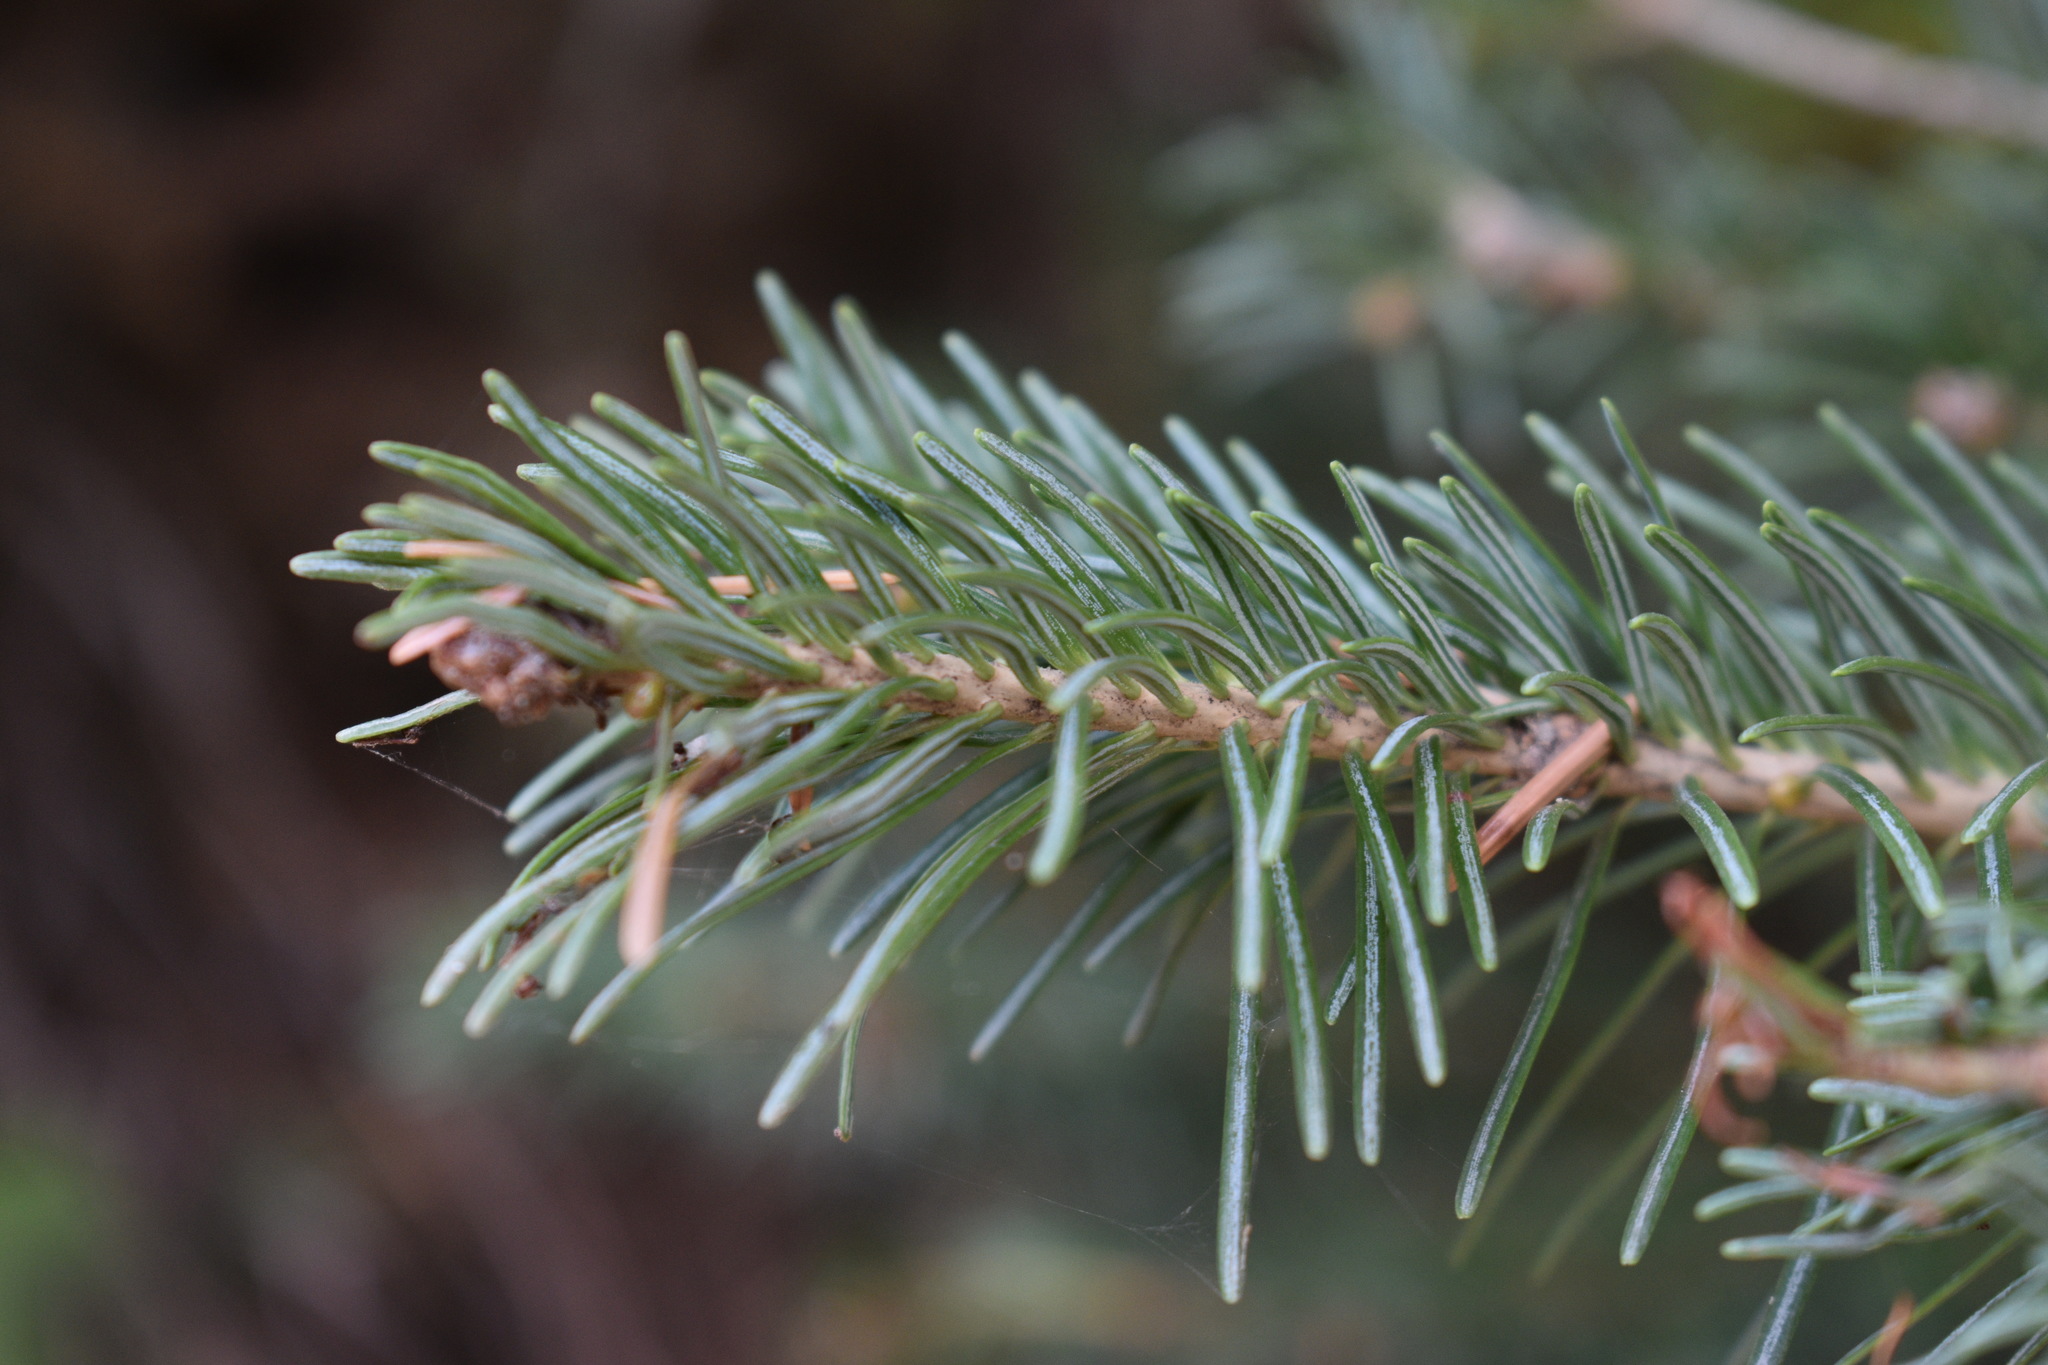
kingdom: Plantae
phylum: Tracheophyta
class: Pinopsida
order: Pinales
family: Pinaceae
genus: Abies
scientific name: Abies lasiocarpa
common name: Subalpine fir
